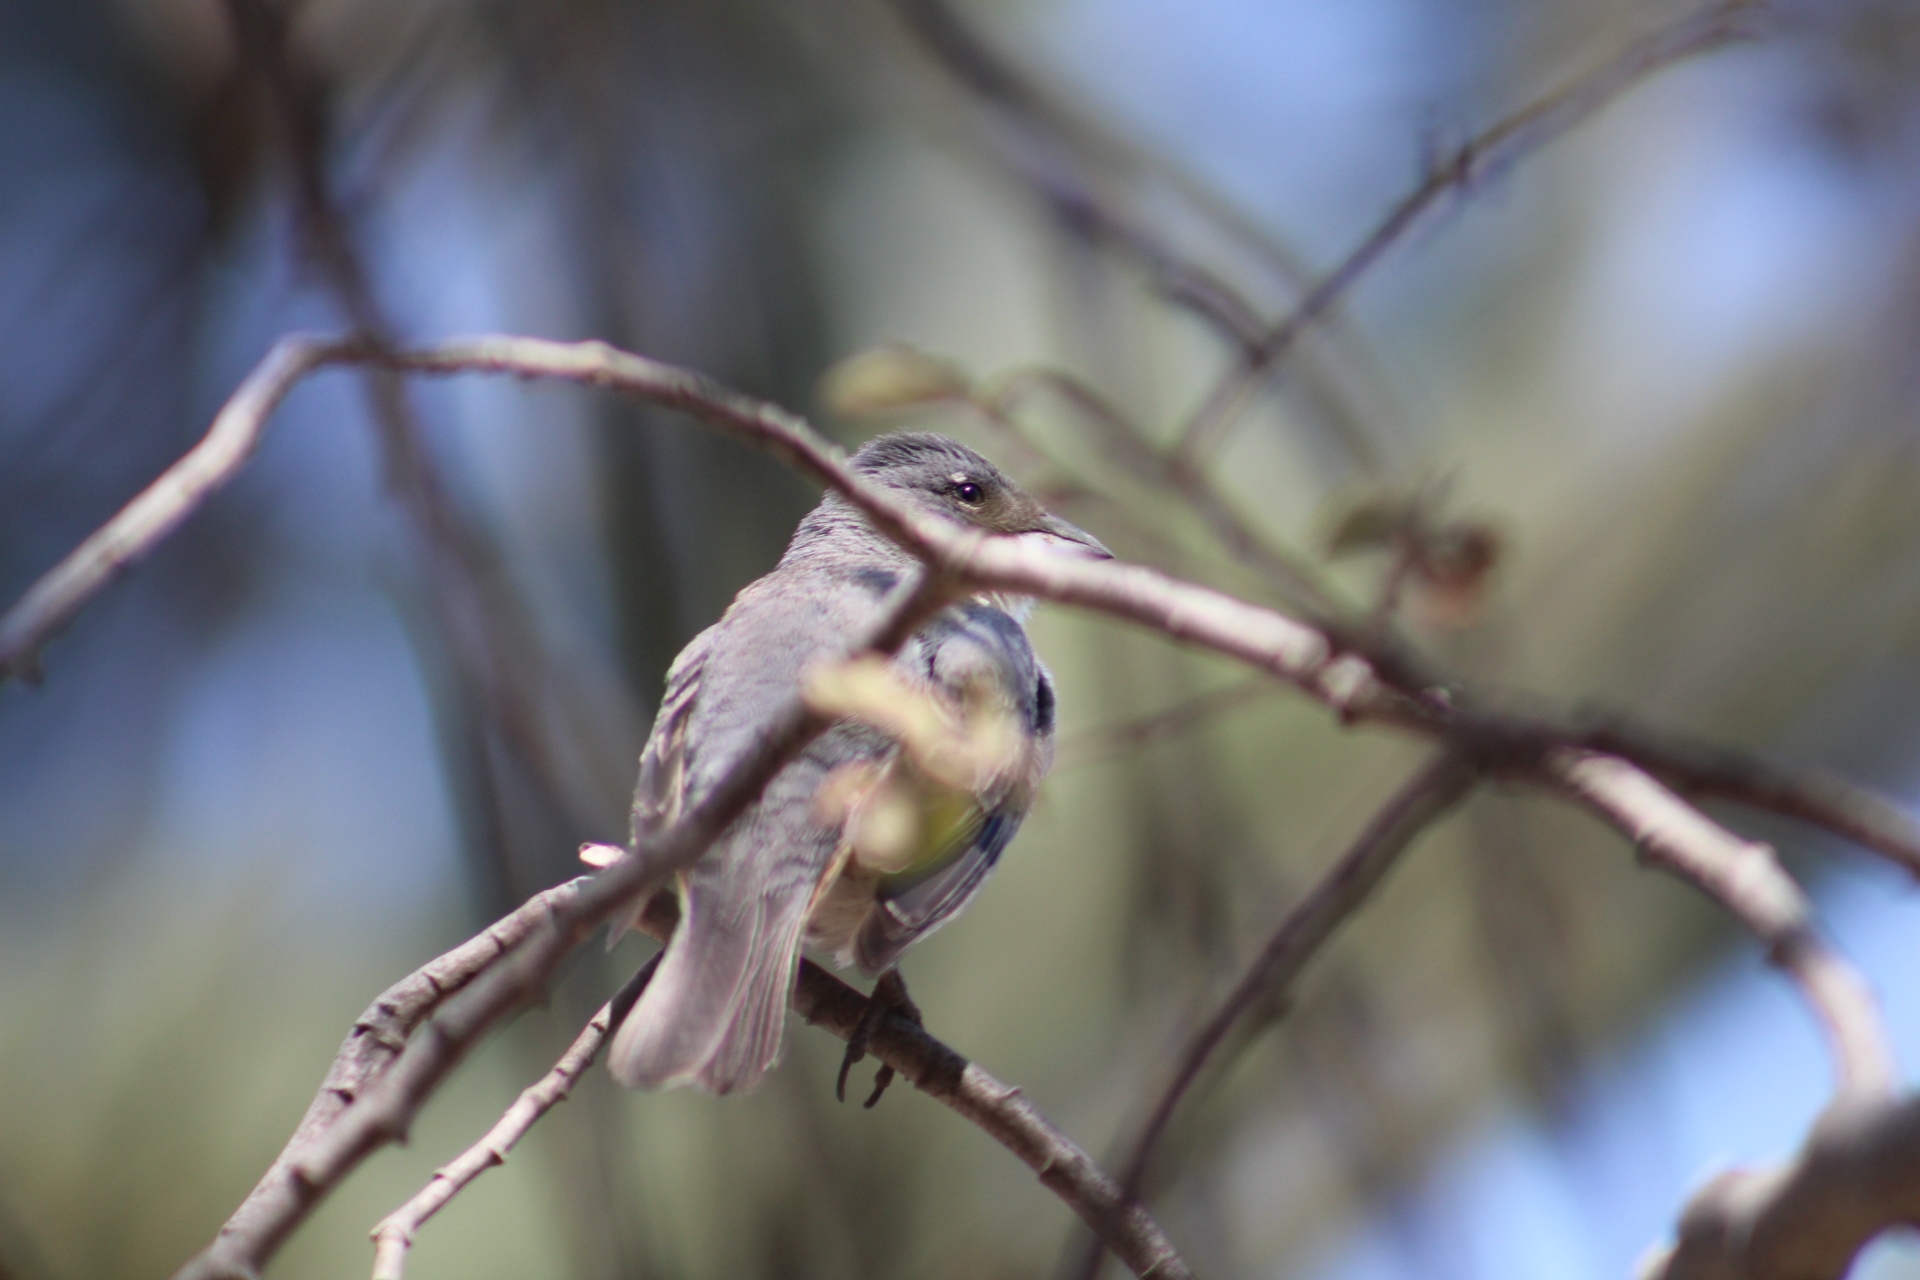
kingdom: Animalia
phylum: Chordata
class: Aves
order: Passeriformes
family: Thraupidae
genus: Diuca
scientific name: Diuca diuca
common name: Common diuca finch
